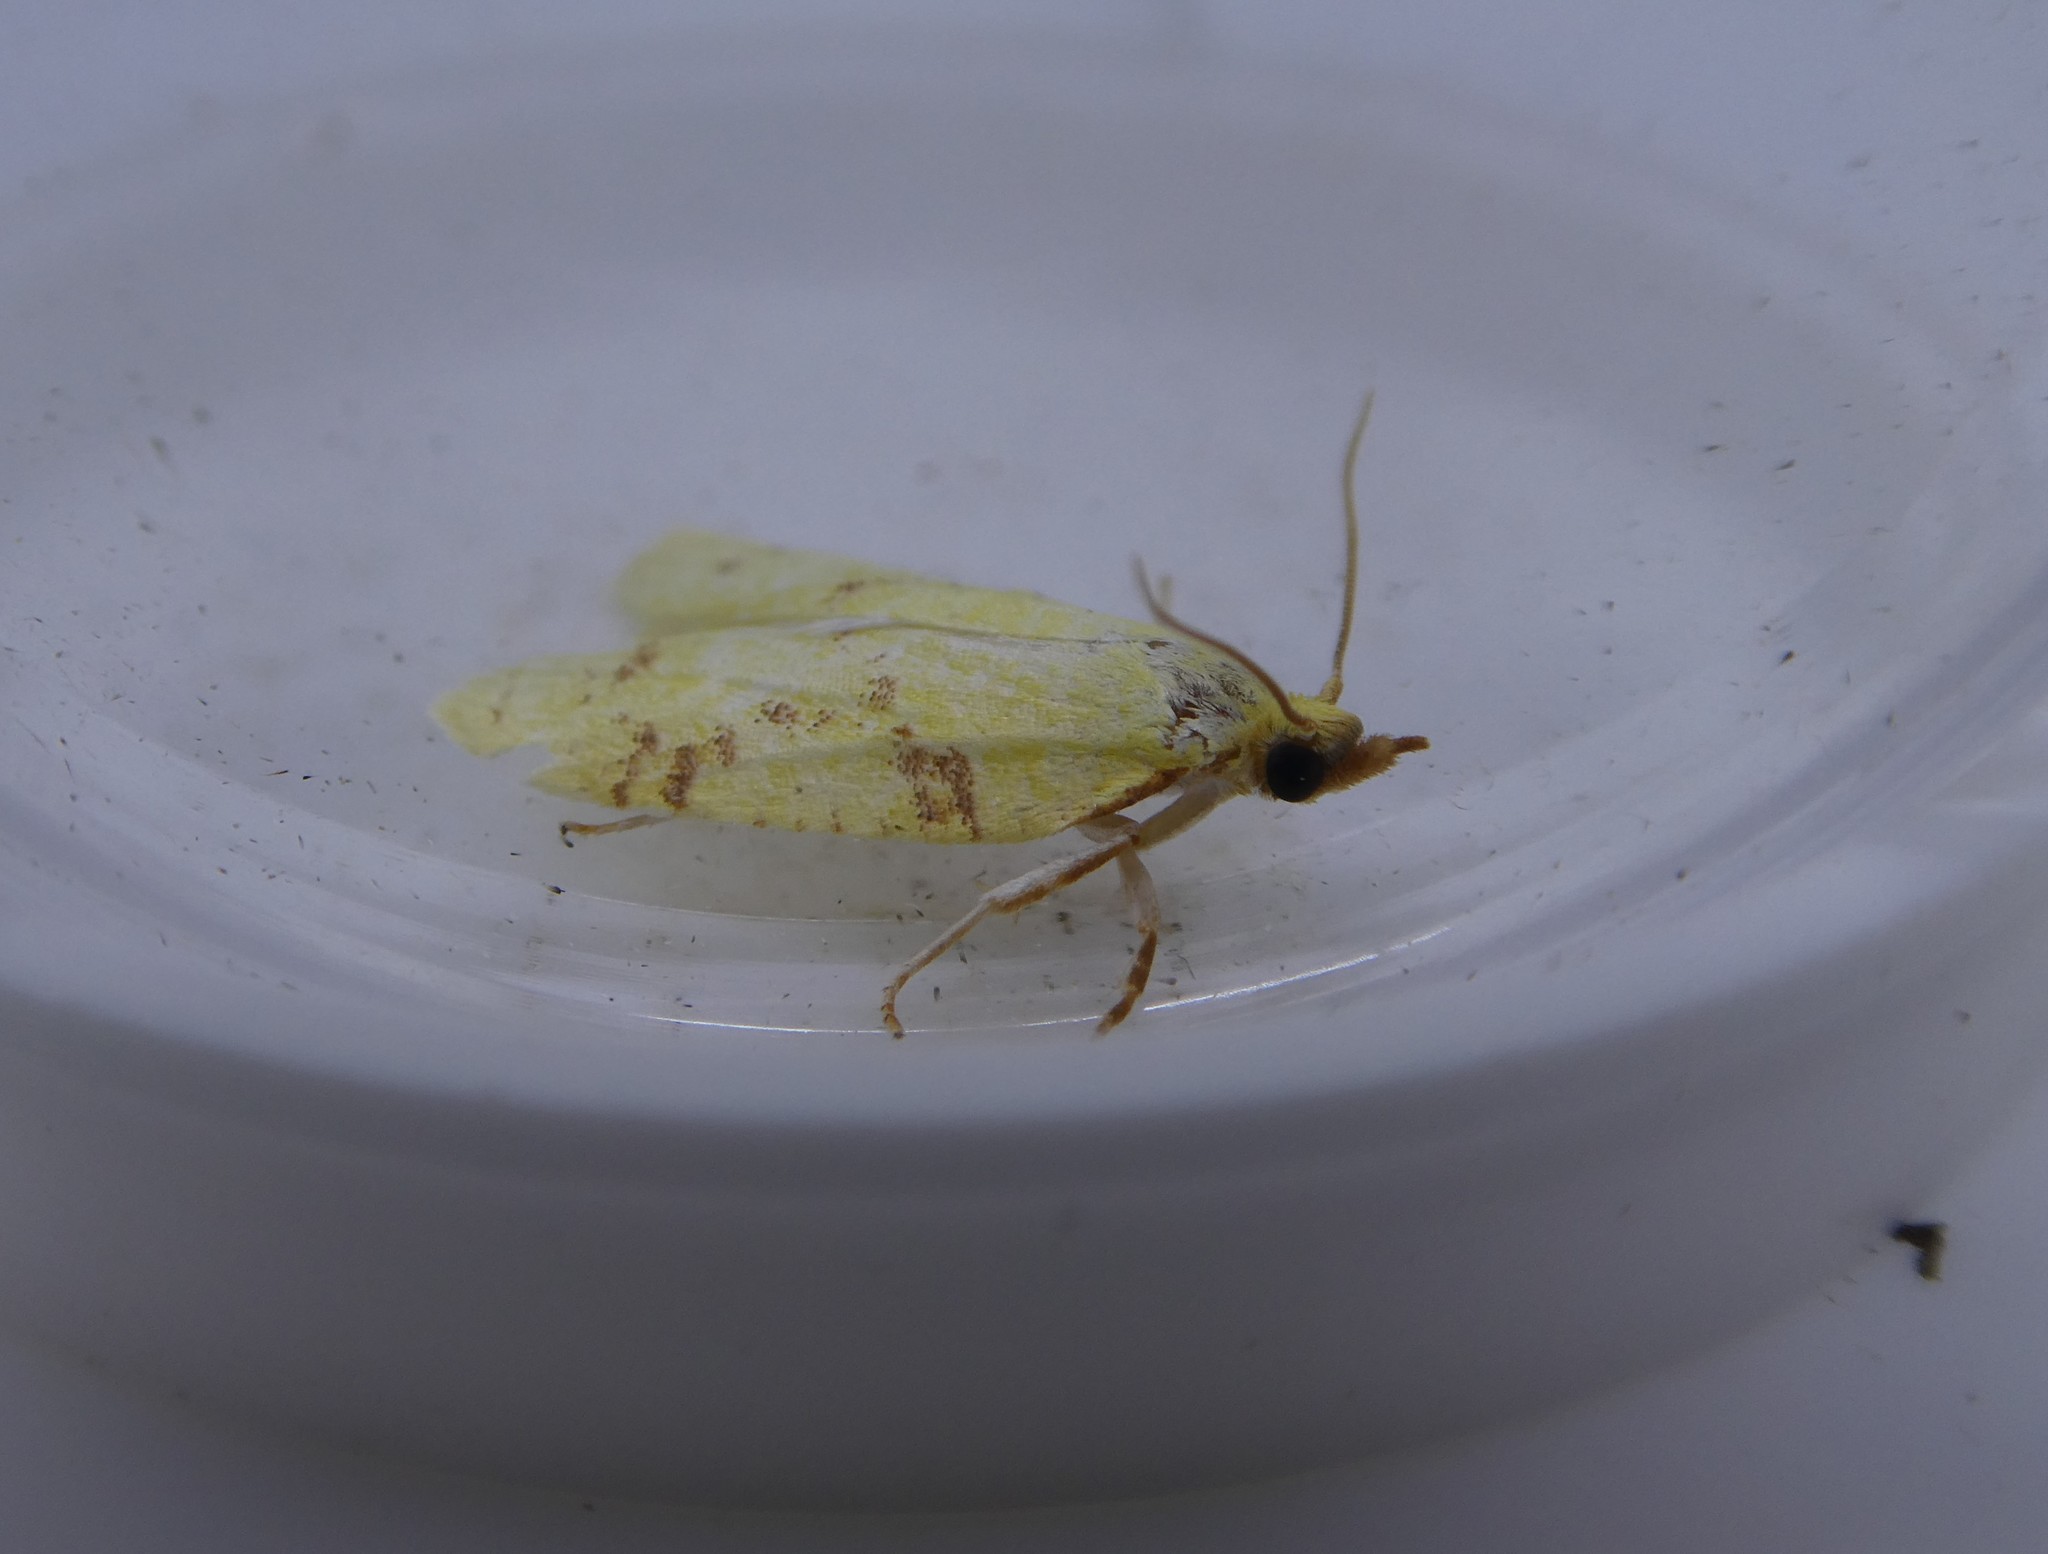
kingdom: Animalia
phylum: Arthropoda
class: Insecta
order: Lepidoptera
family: Tortricidae
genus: Cenopis
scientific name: Cenopis pettitana
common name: Maple-basswood leafroller moth
